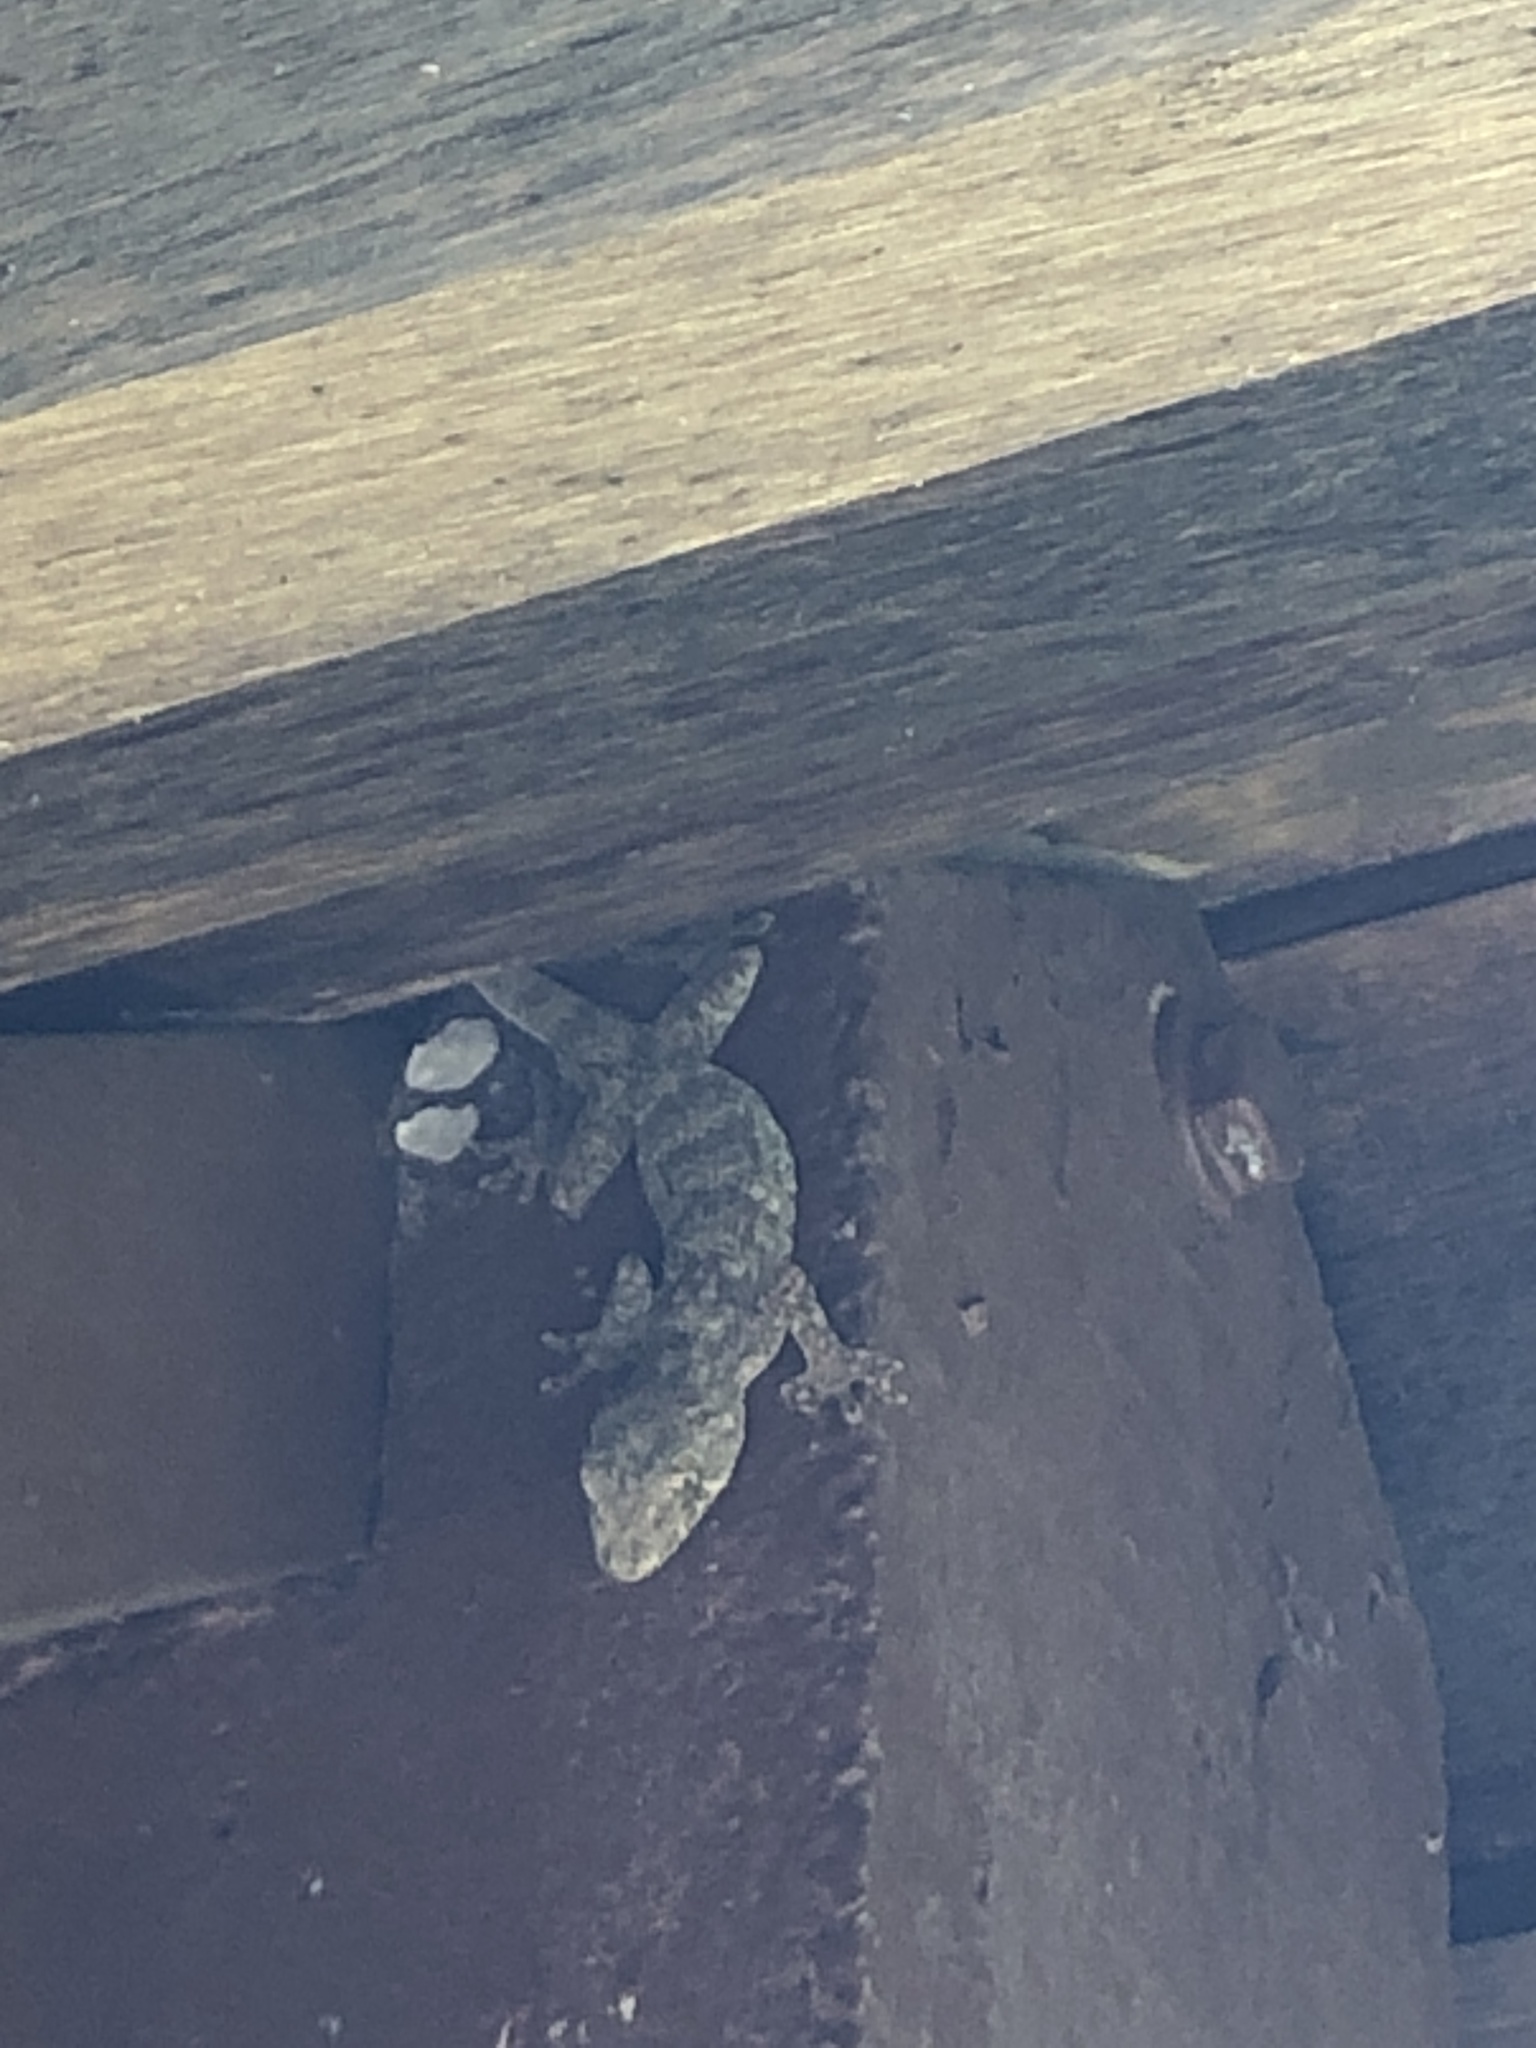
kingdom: Animalia
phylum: Chordata
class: Squamata
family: Gekkonidae
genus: Gekko
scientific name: Gekko chinensis
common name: Gray's chinese gecko
